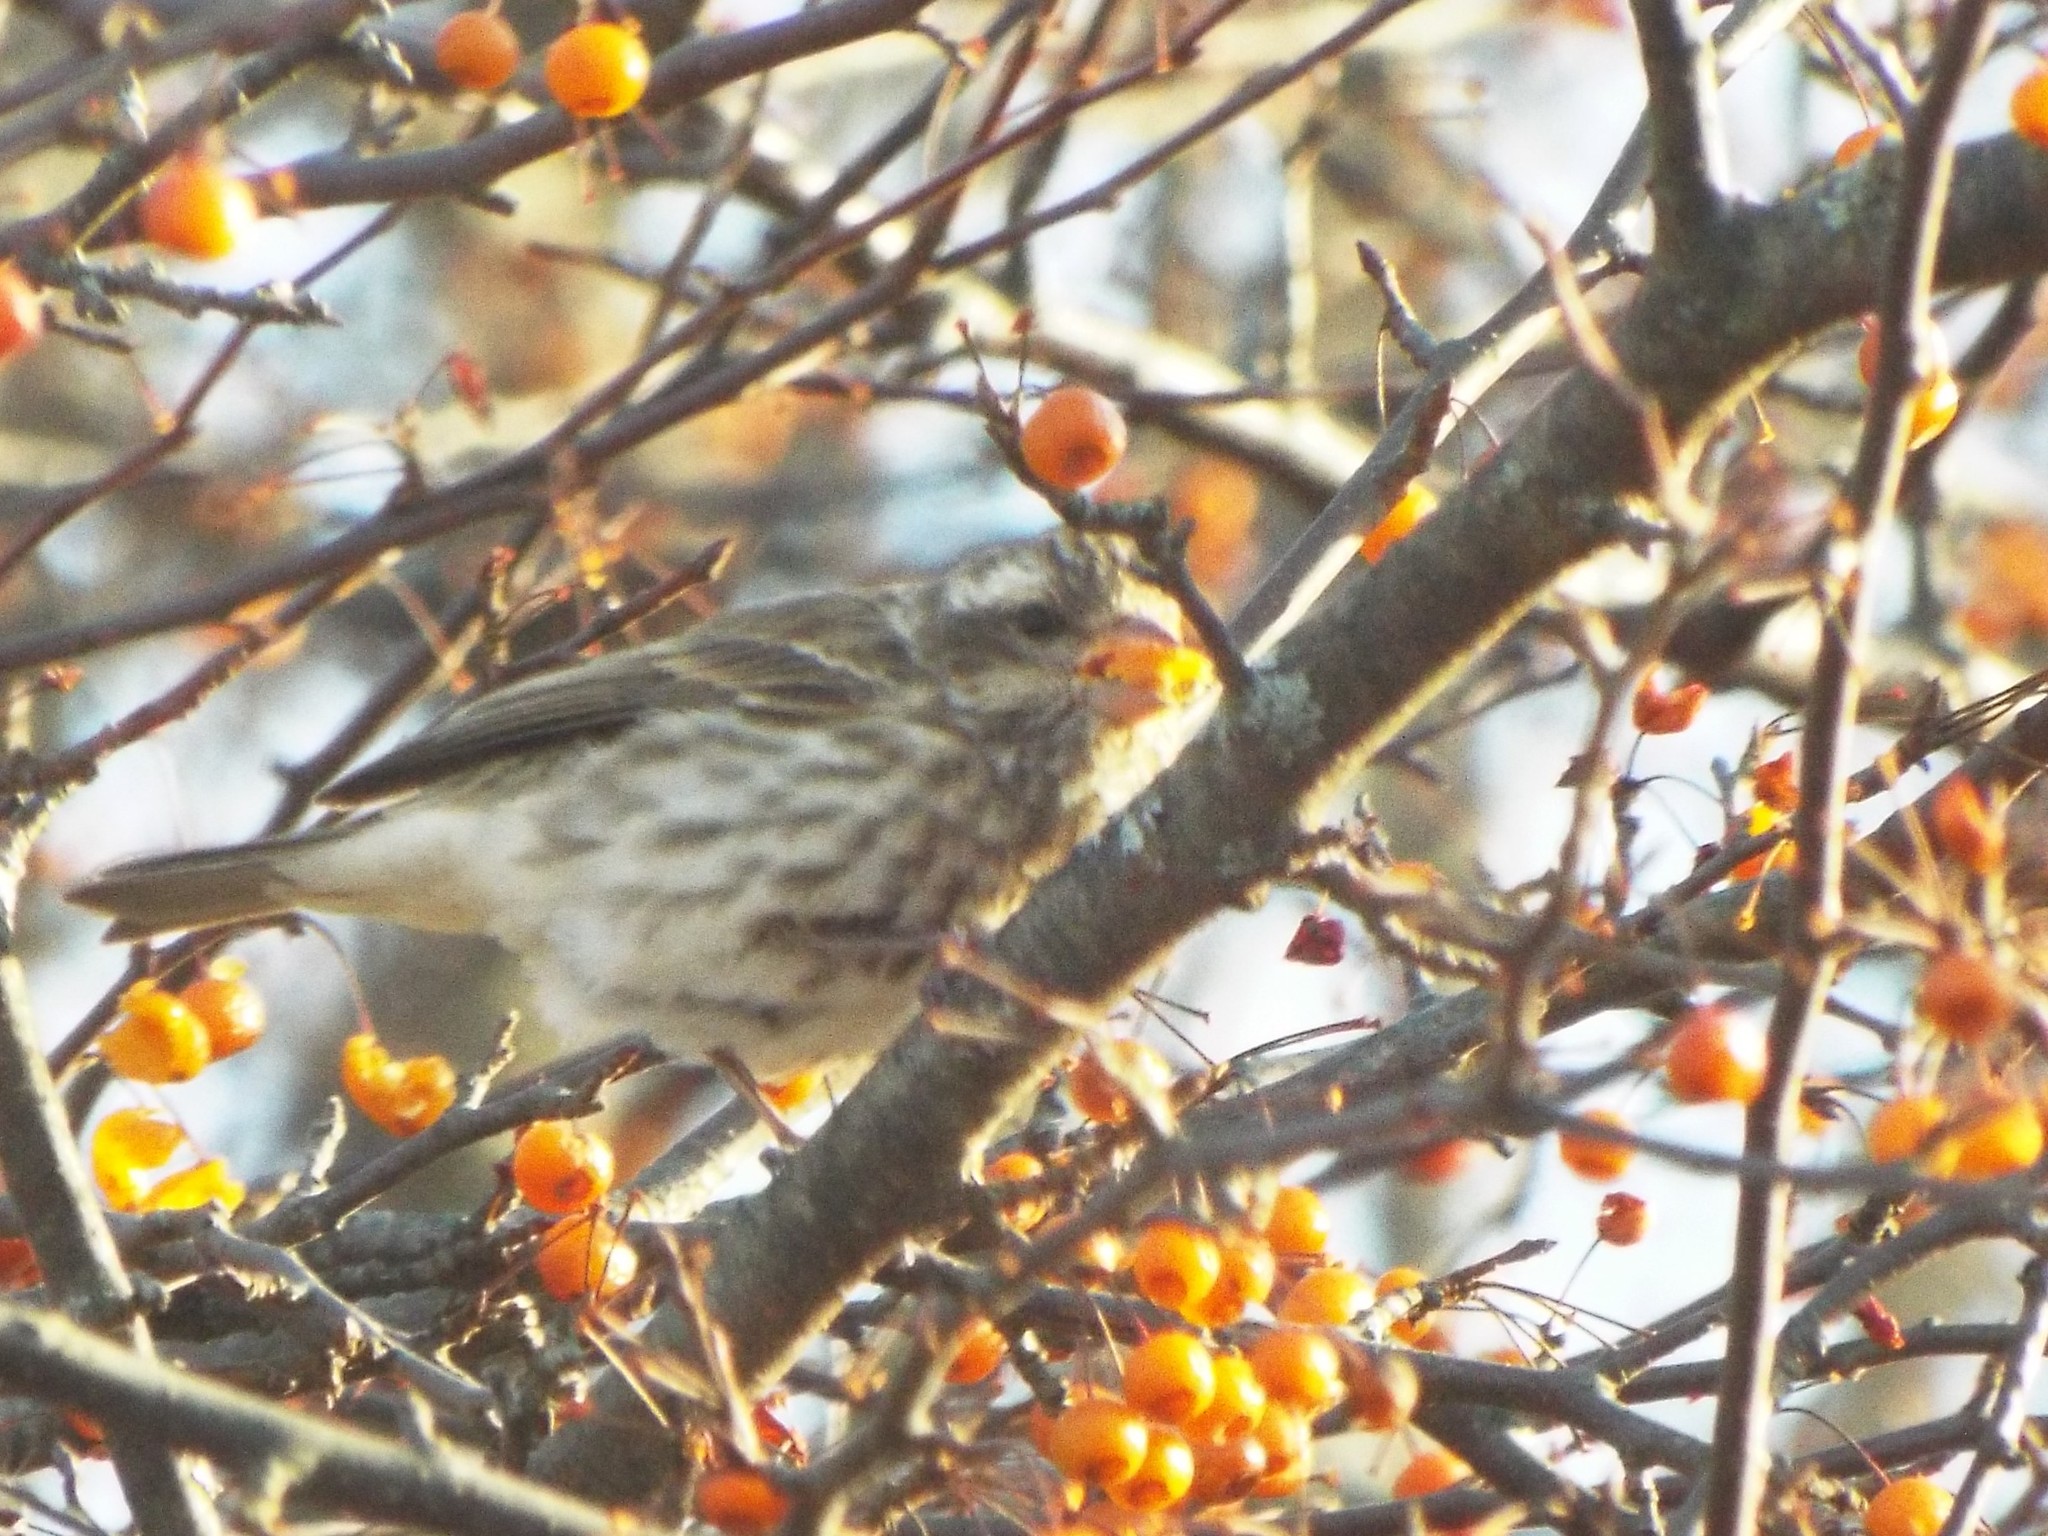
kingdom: Animalia
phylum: Chordata
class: Aves
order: Passeriformes
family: Fringillidae
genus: Haemorhous
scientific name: Haemorhous purpureus
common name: Purple finch
